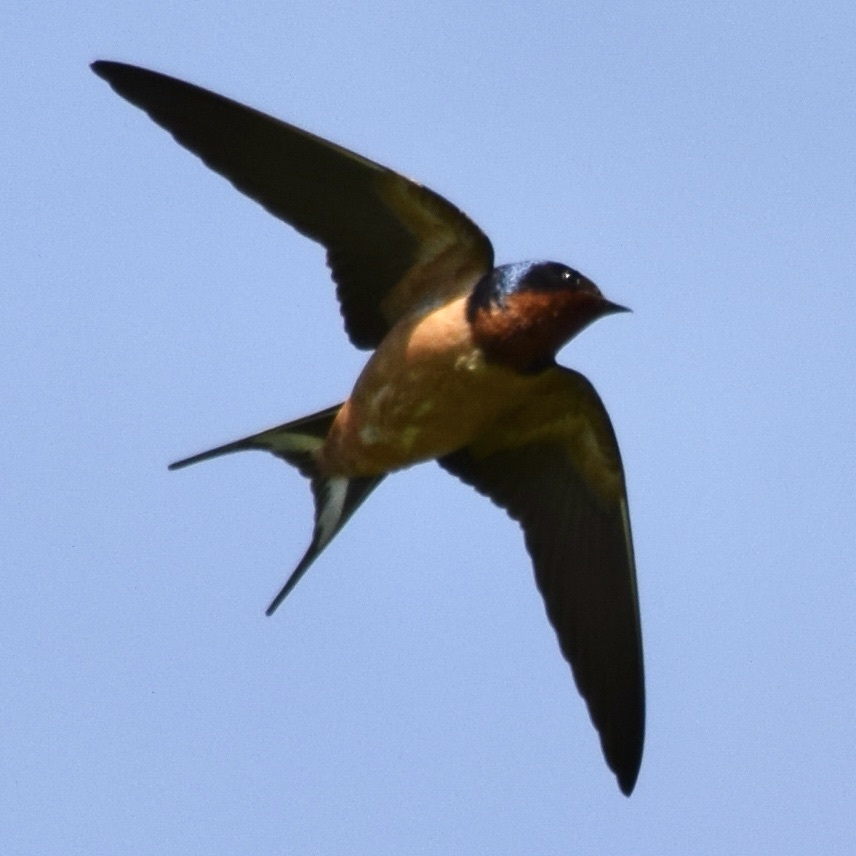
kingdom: Animalia
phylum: Chordata
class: Aves
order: Passeriformes
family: Hirundinidae
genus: Hirundo
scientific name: Hirundo rustica
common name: Barn swallow
